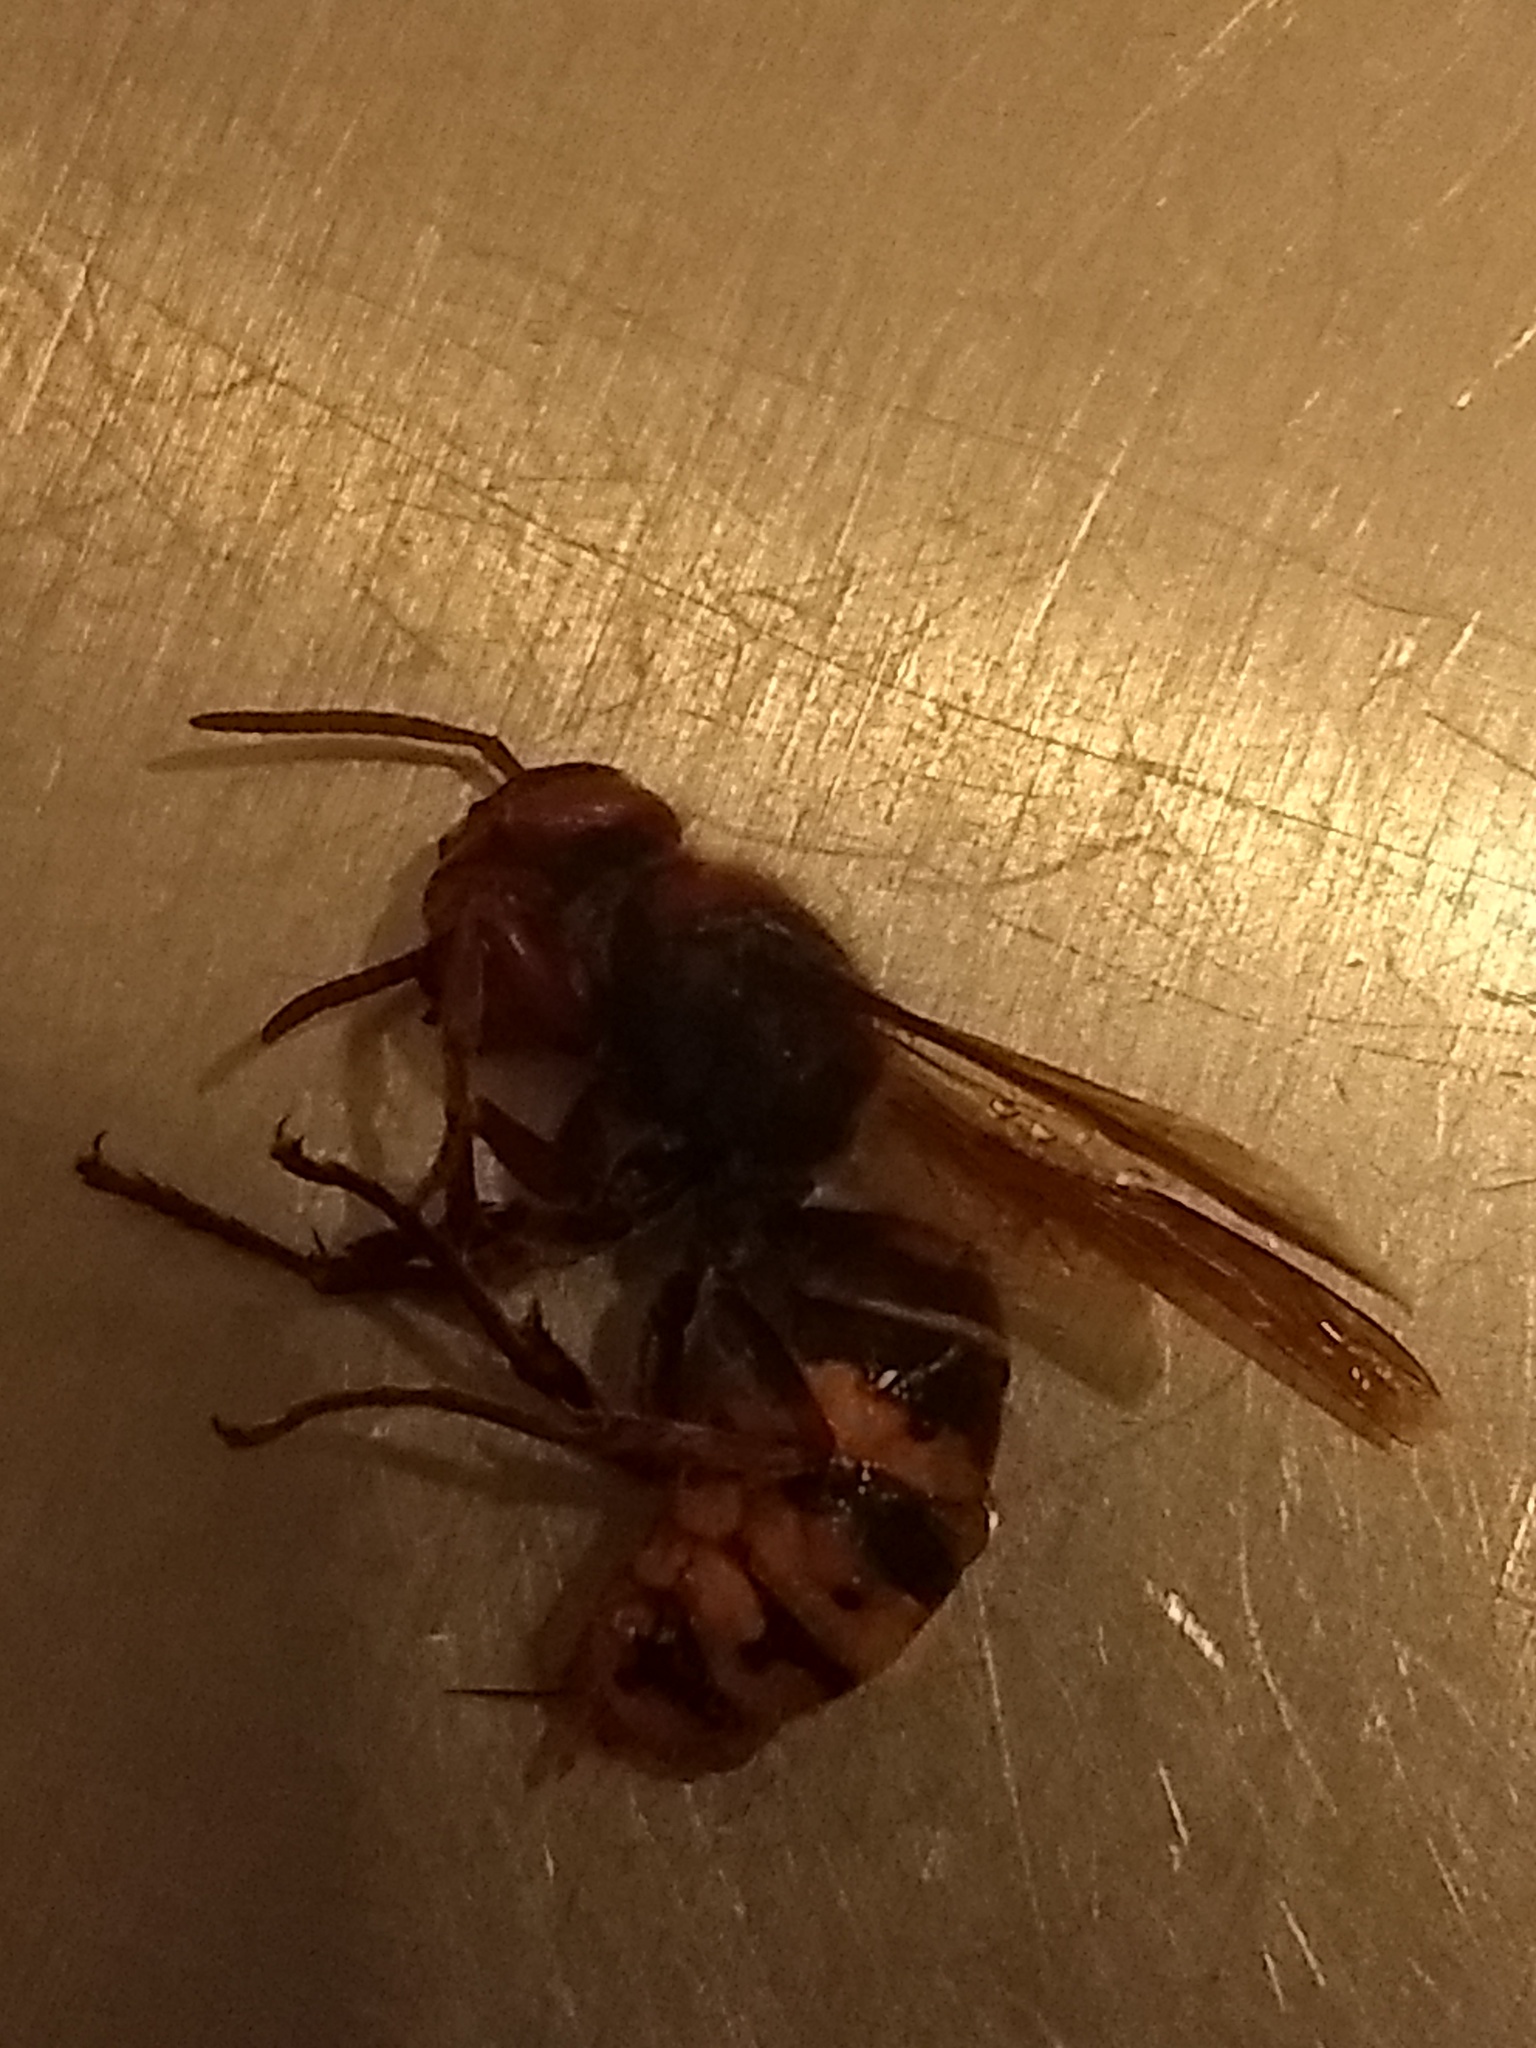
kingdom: Animalia
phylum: Arthropoda
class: Insecta
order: Hymenoptera
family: Vespidae
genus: Vespa
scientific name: Vespa crabro
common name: Hornet
